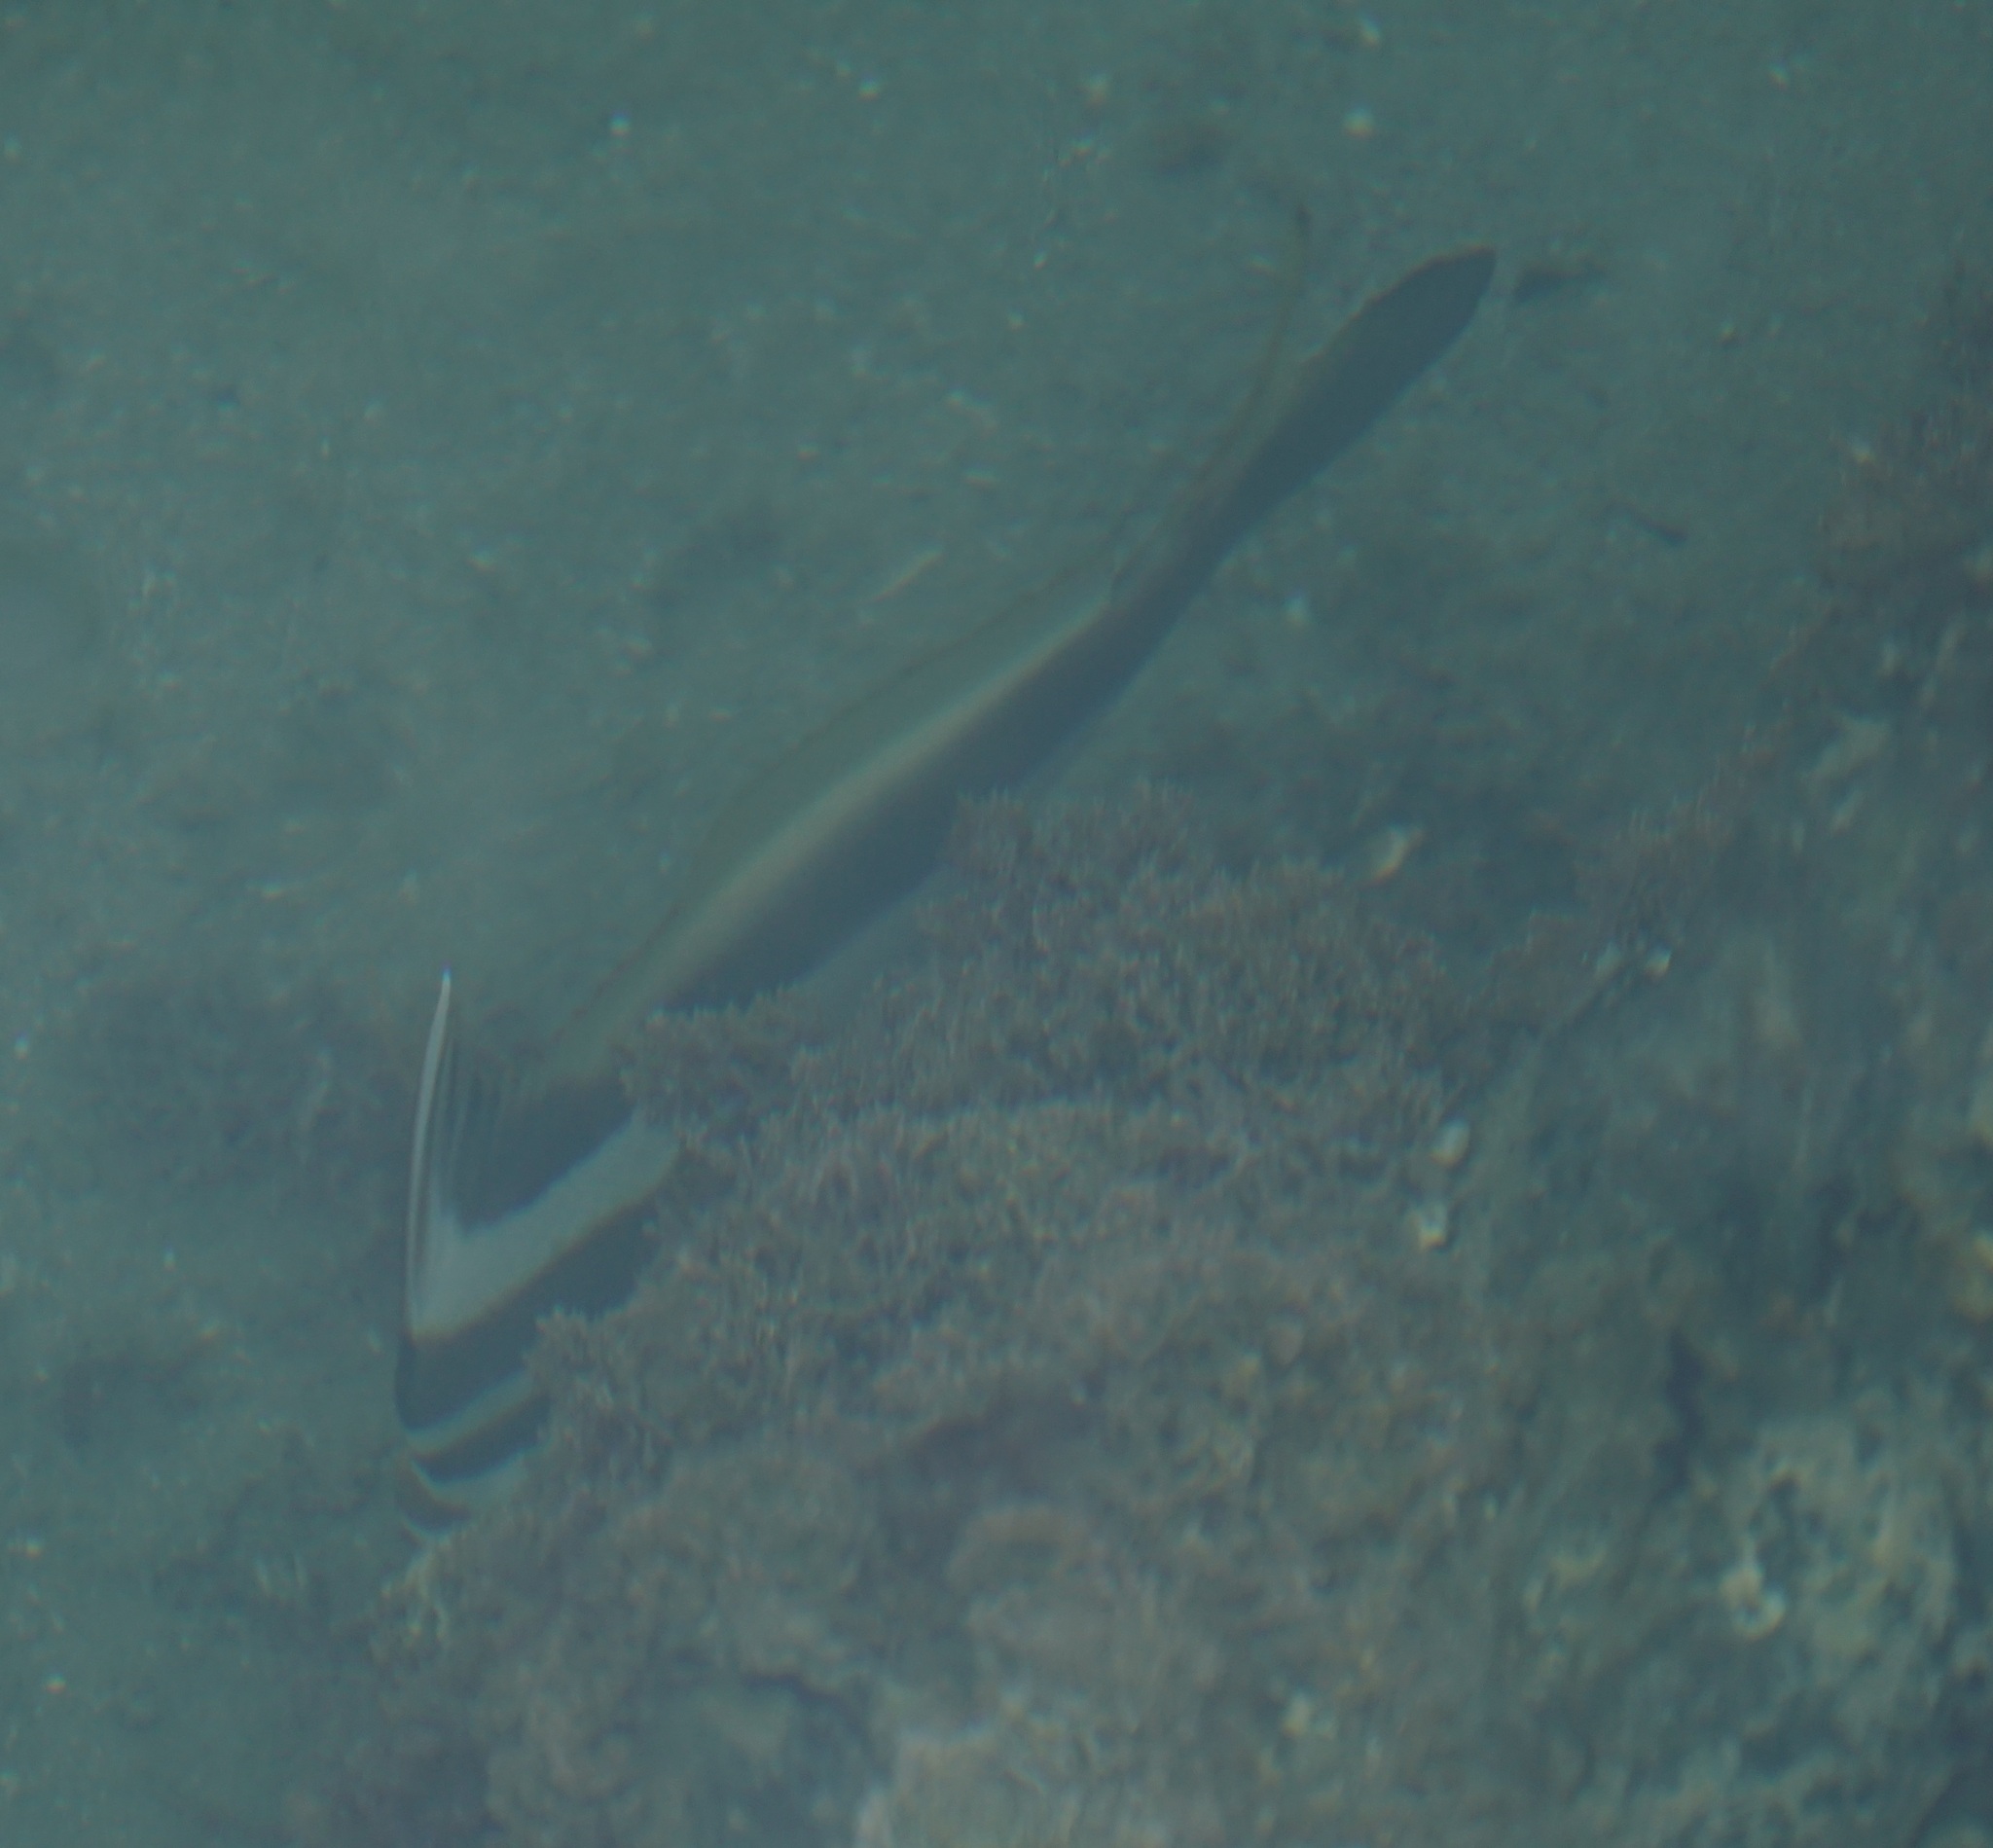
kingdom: Animalia
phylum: Chordata
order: Perciformes
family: Cheilodactylidae
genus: Cheilodactylus
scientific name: Cheilodactylus vestitus
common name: Crested morwong
